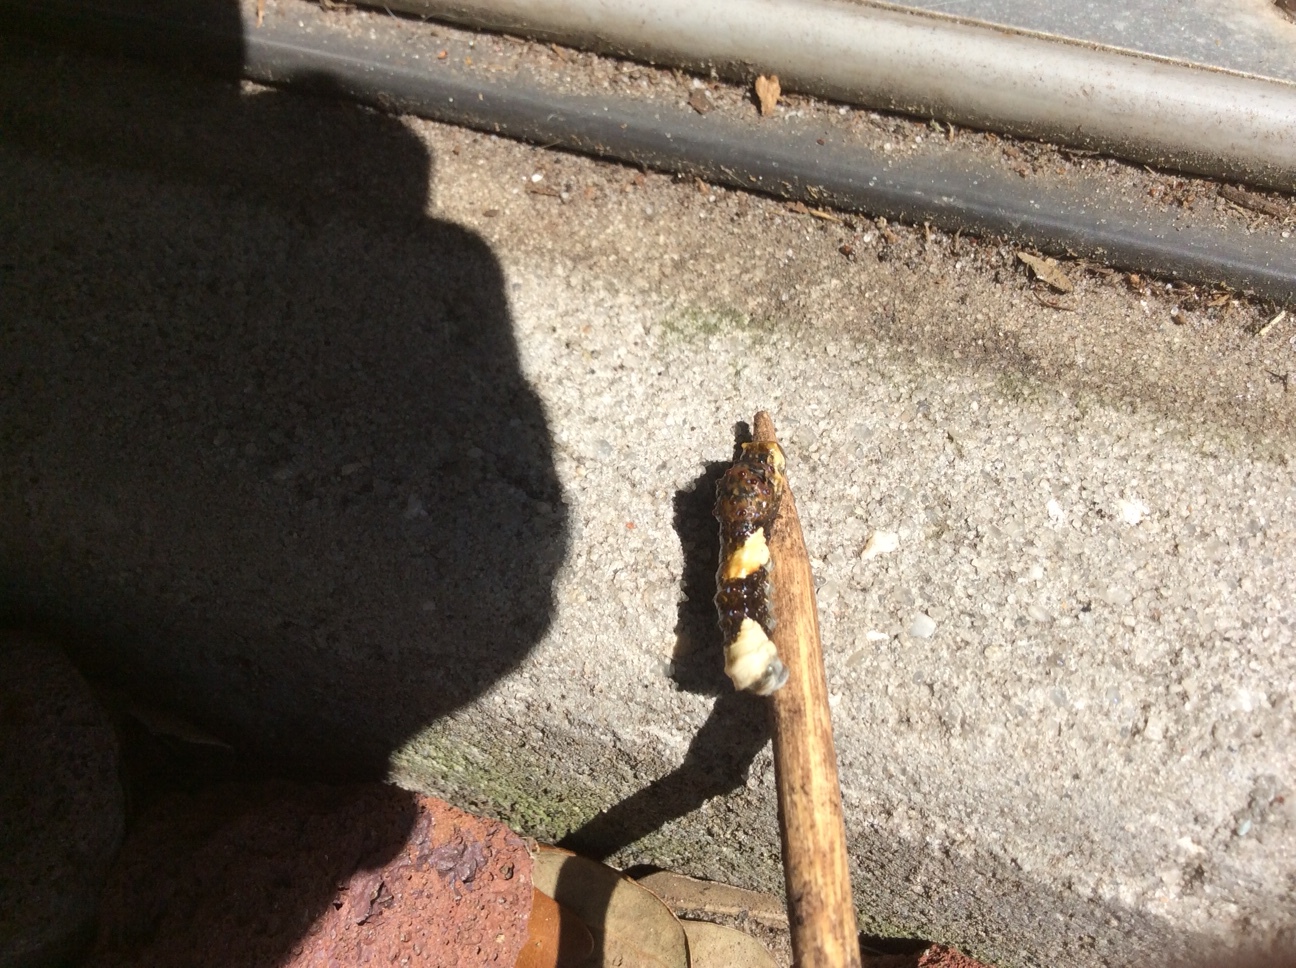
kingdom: Animalia
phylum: Arthropoda
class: Insecta
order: Lepidoptera
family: Papilionidae
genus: Papilio
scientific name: Papilio cresphontes
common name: Giant swallowtail
